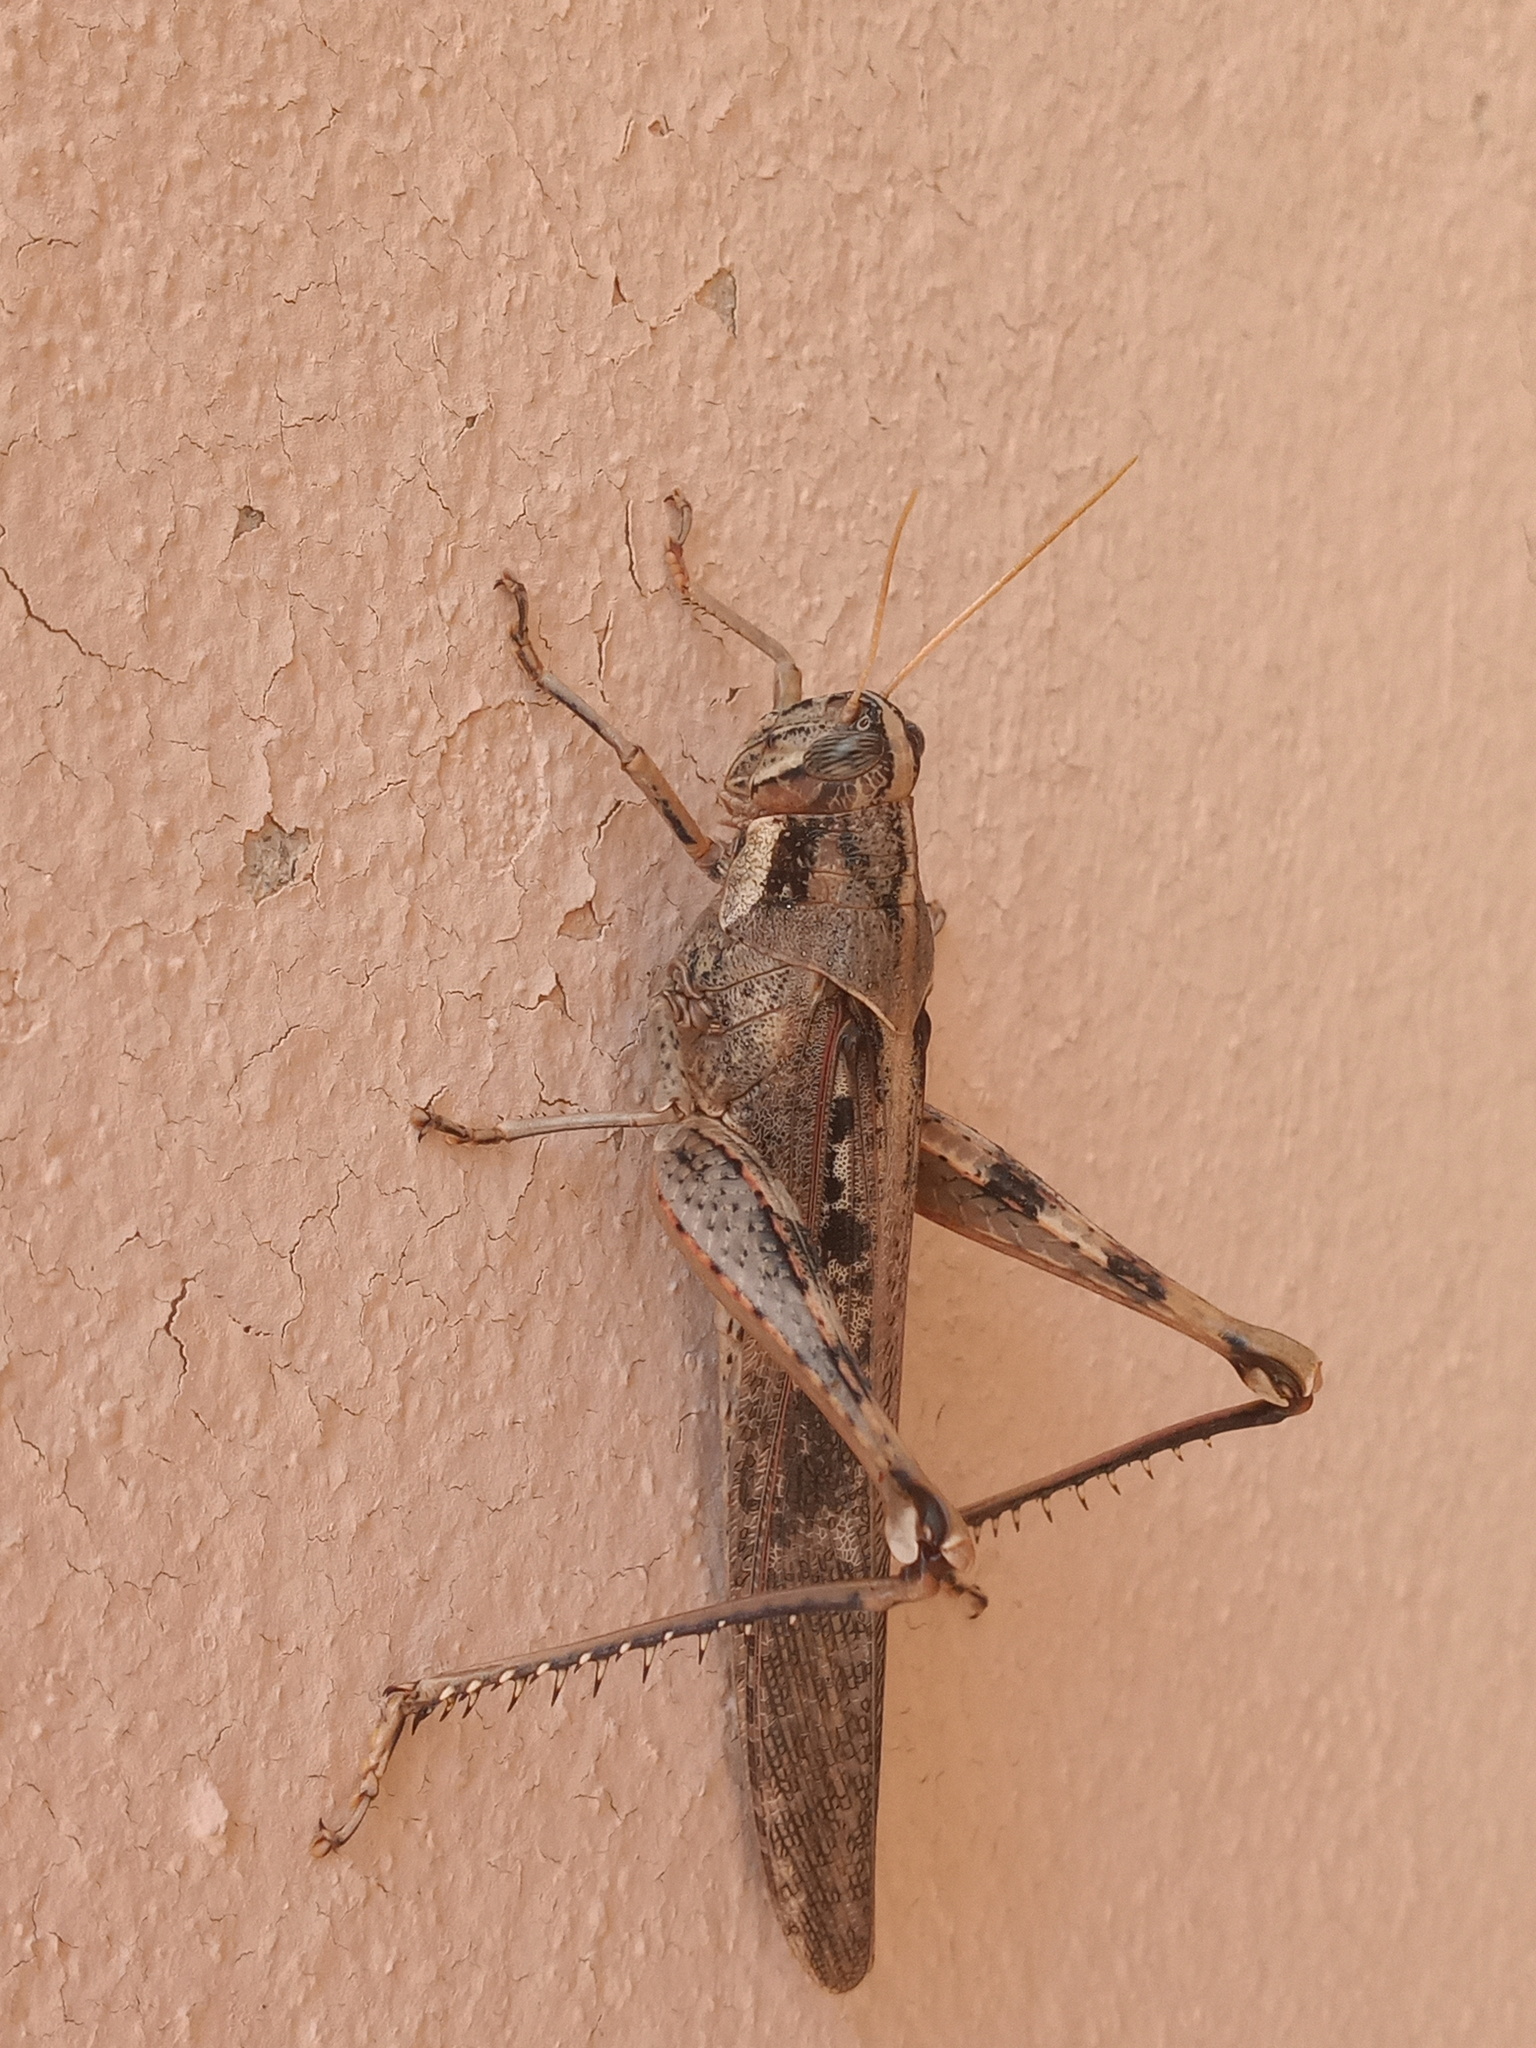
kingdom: Animalia
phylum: Arthropoda
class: Insecta
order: Orthoptera
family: Acrididae
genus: Schistocerca
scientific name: Schistocerca nitens
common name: Vagrant grasshopper
